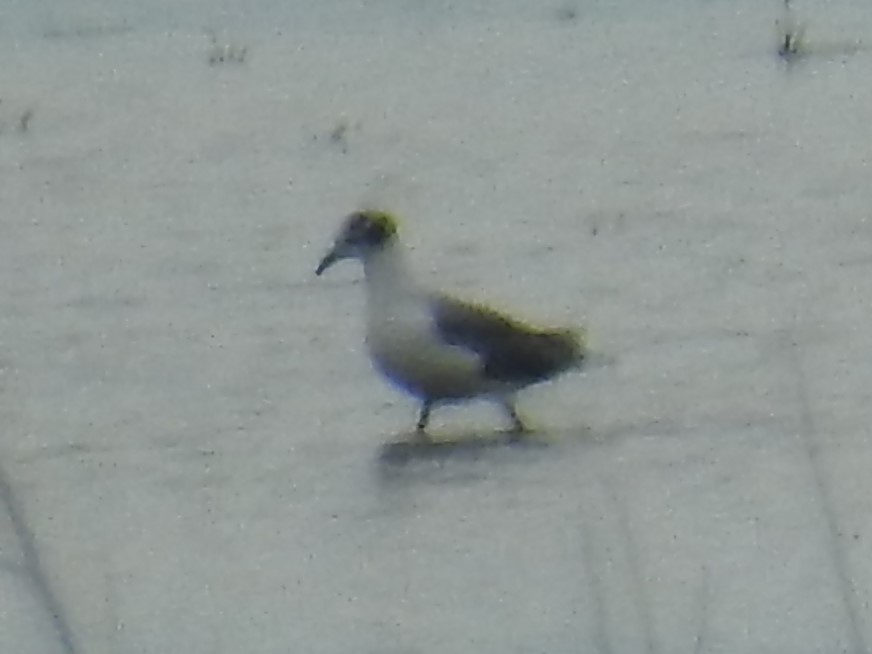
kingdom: Animalia
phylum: Chordata
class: Aves
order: Charadriiformes
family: Laridae
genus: Leucophaeus
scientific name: Leucophaeus pipixcan
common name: Franklin's gull
